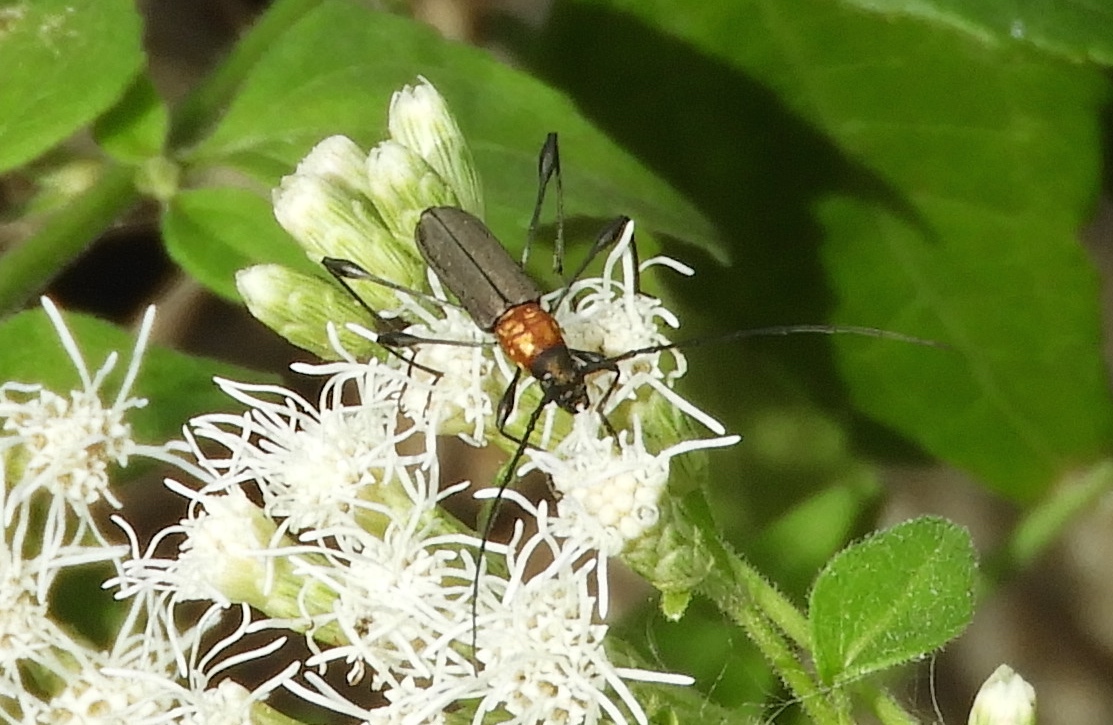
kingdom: Animalia
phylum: Arthropoda
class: Insecta
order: Coleoptera
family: Cerambycidae
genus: Rhopalophora
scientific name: Rhopalophora rugicollis
